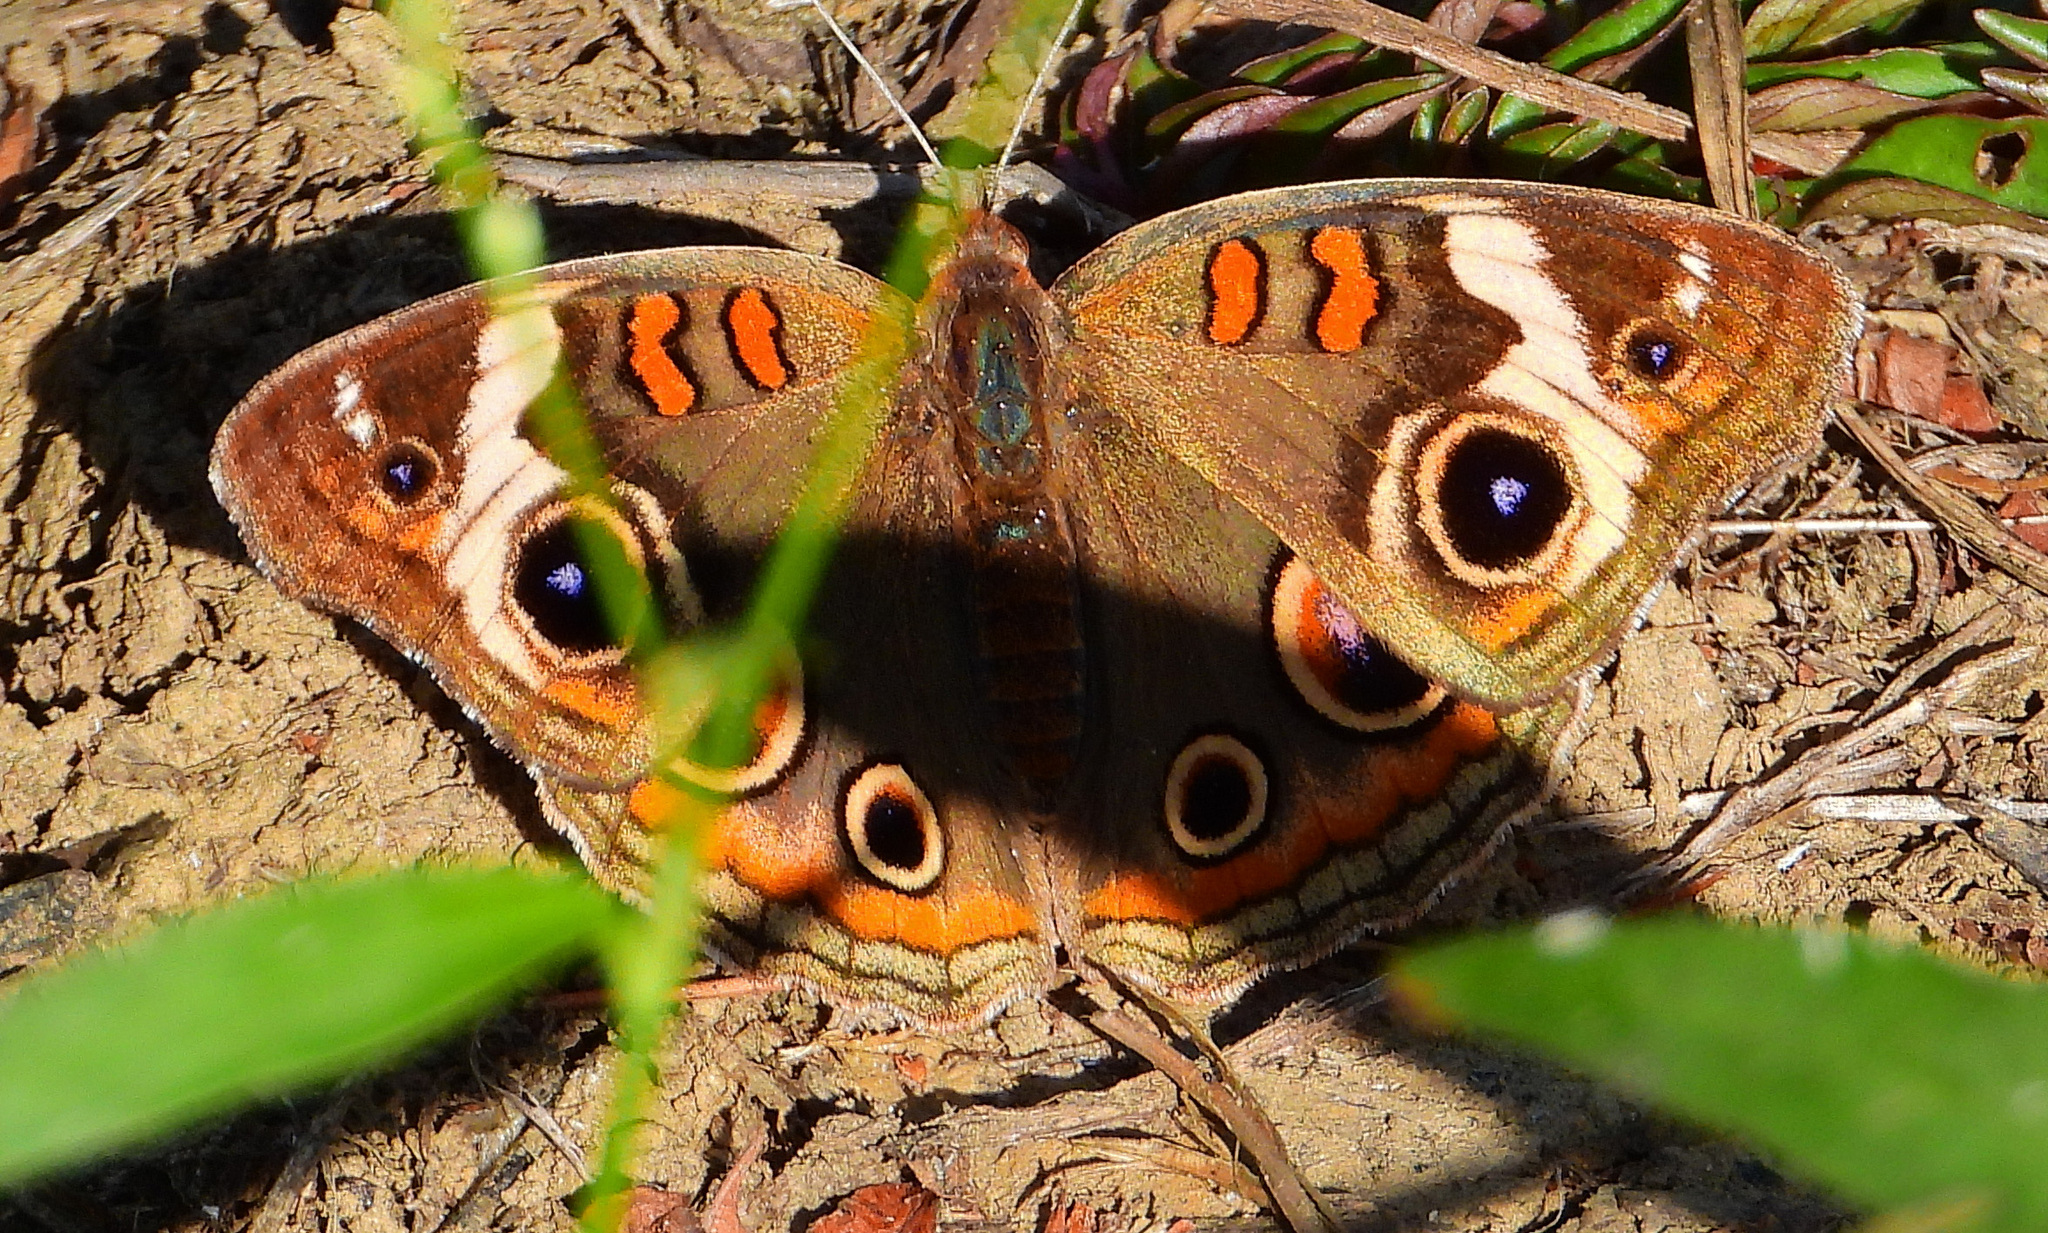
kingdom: Animalia
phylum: Arthropoda
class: Insecta
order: Lepidoptera
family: Nymphalidae
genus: Junonia
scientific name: Junonia coenia
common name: Common buckeye
